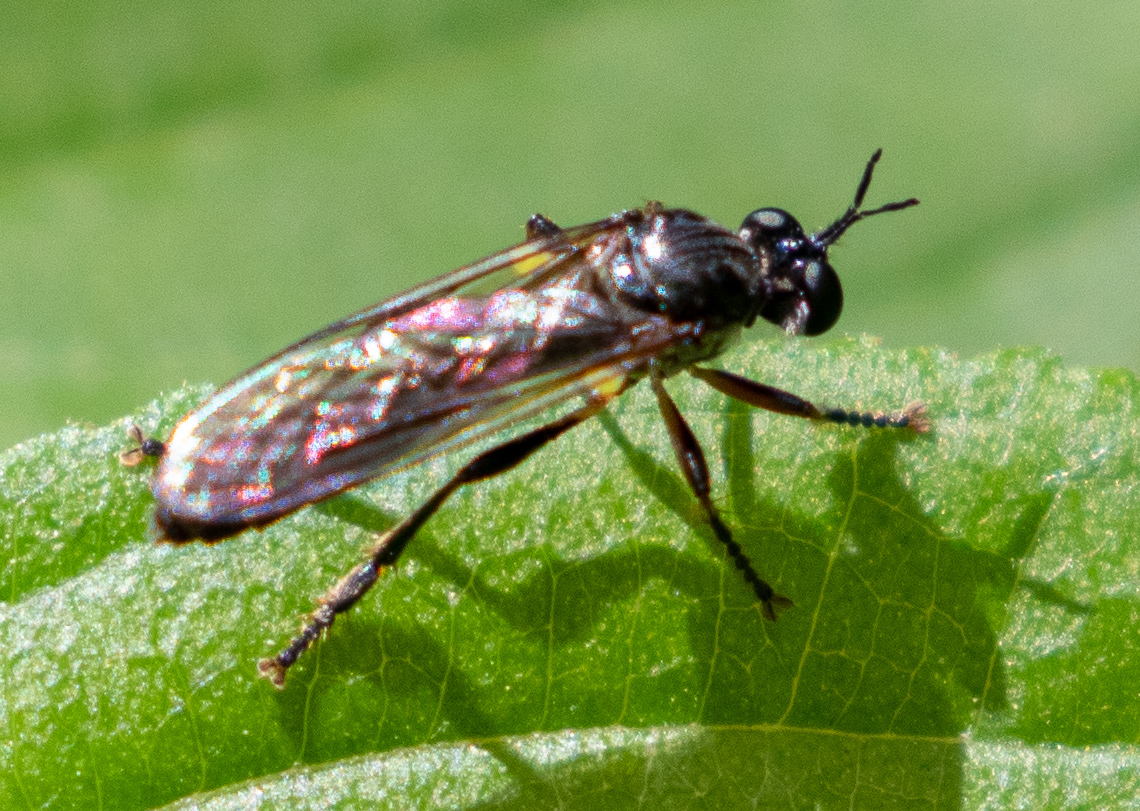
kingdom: Animalia
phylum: Arthropoda
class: Insecta
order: Diptera
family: Asilidae
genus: Dioctria
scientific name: Dioctria hyalipennis
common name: Stripe-legged robberfly
